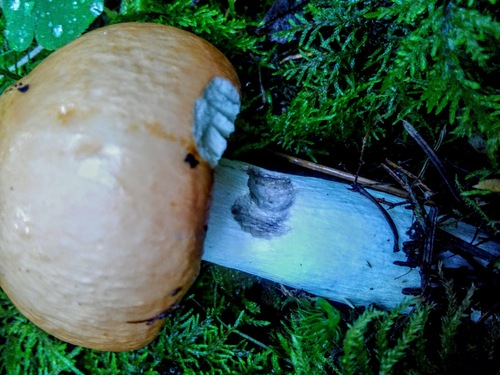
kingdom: Fungi
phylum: Basidiomycota
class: Agaricomycetes
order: Russulales
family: Russulaceae
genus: Russula
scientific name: Russula
